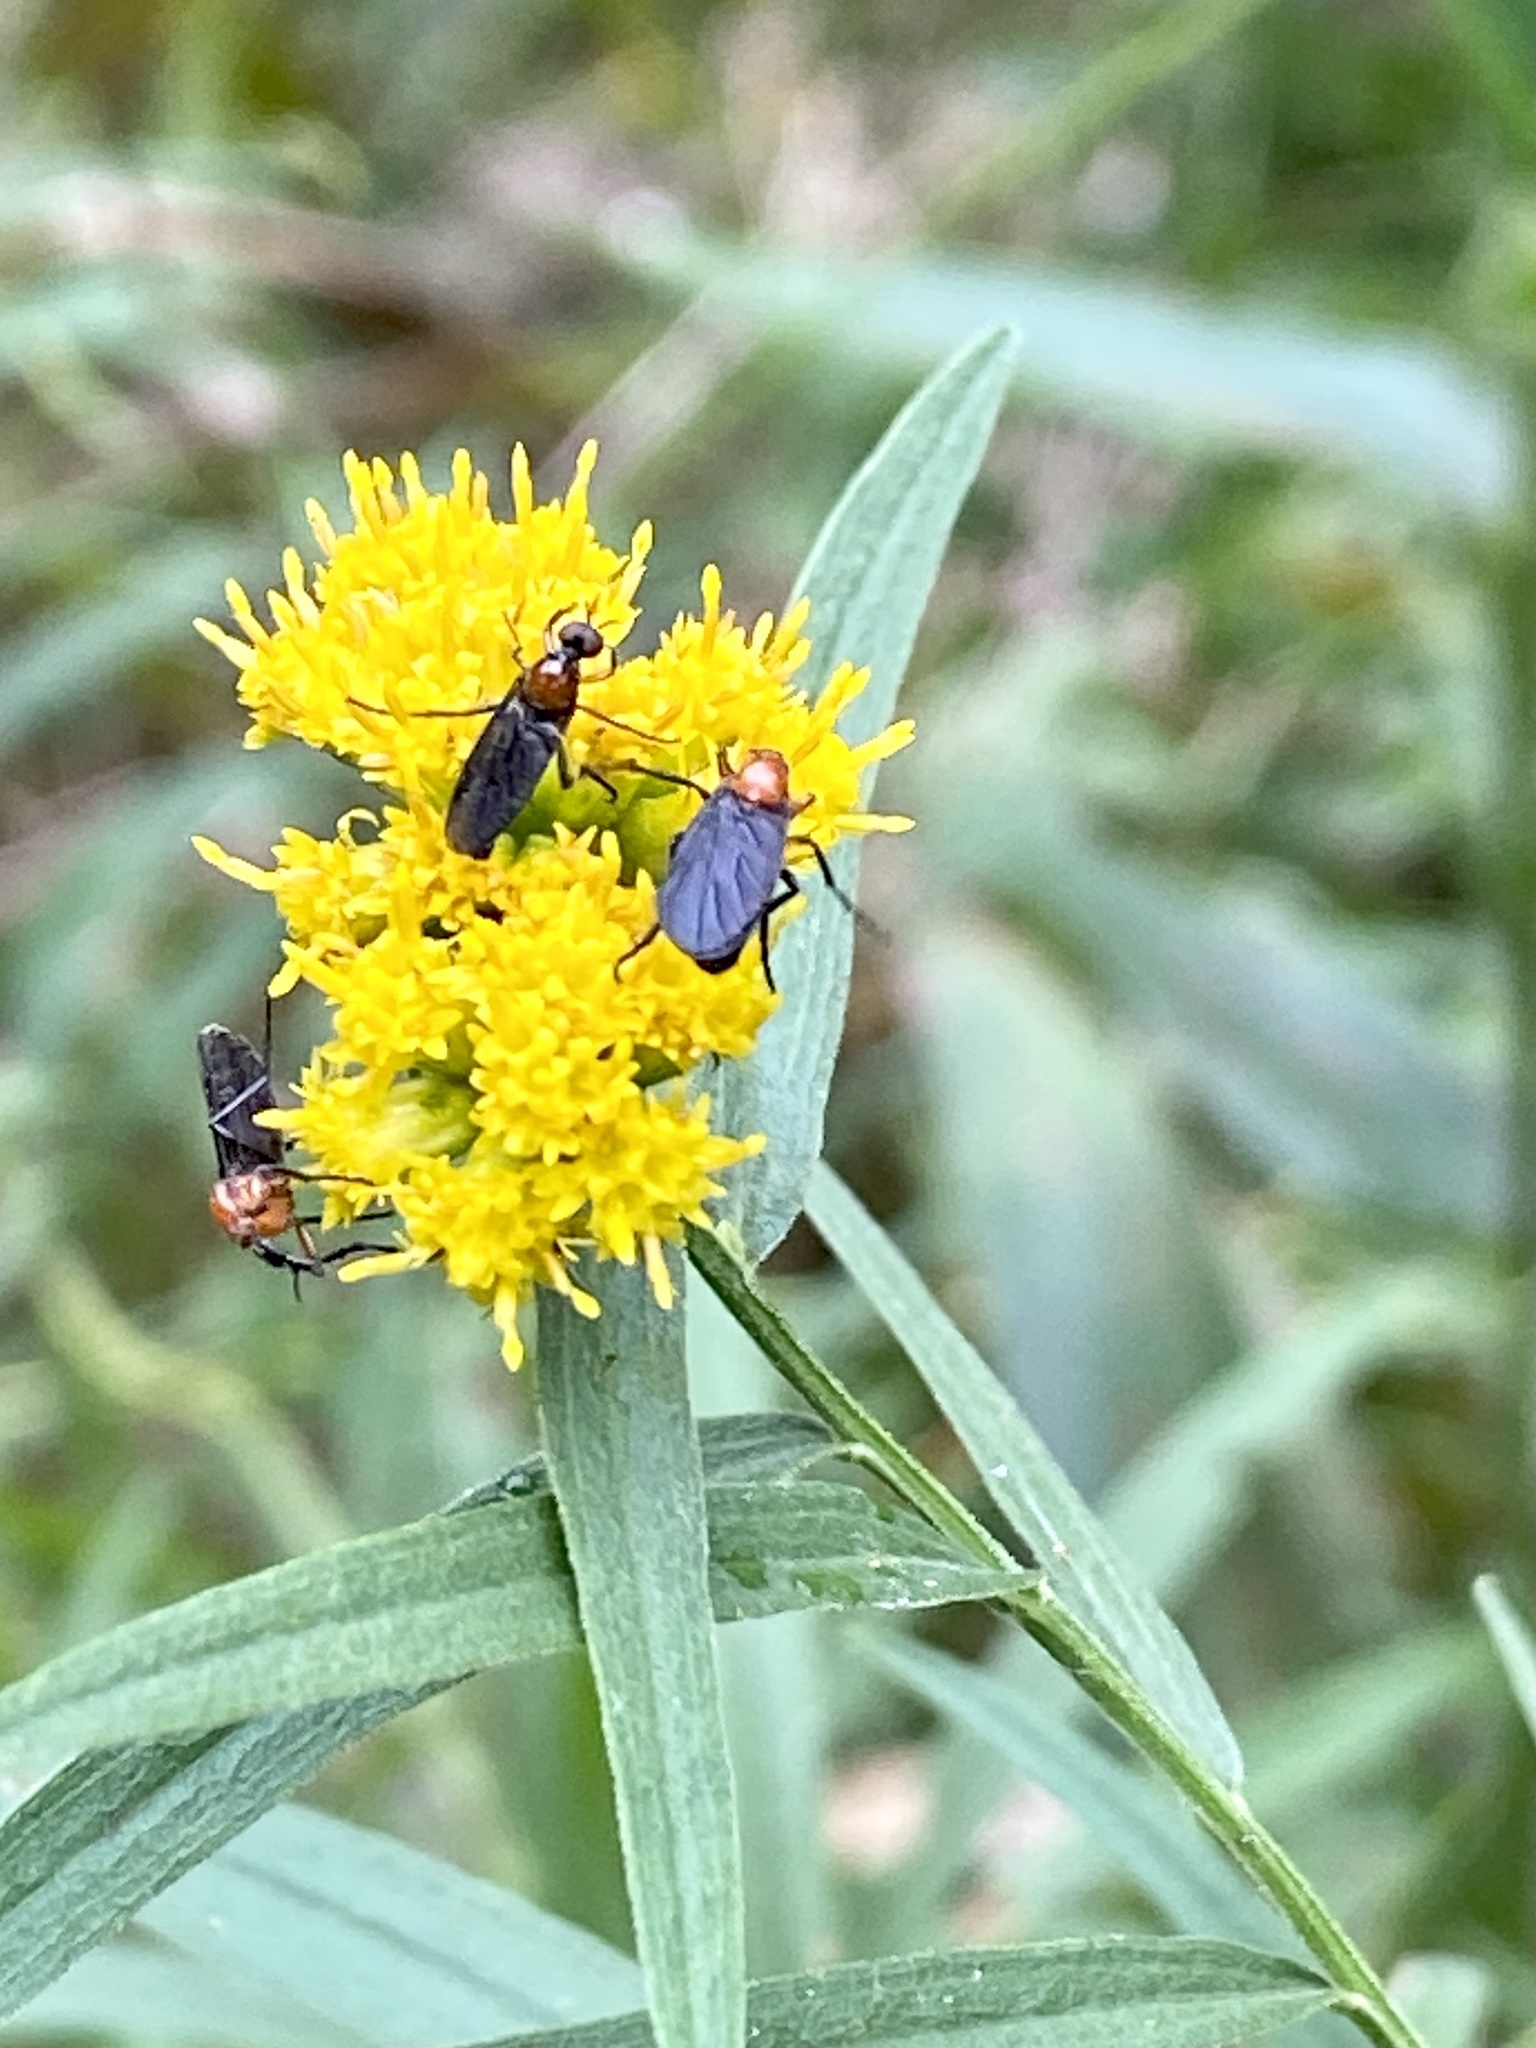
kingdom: Animalia
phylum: Arthropoda
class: Insecta
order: Diptera
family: Bibionidae
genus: Dilophus
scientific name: Dilophus spinipes
